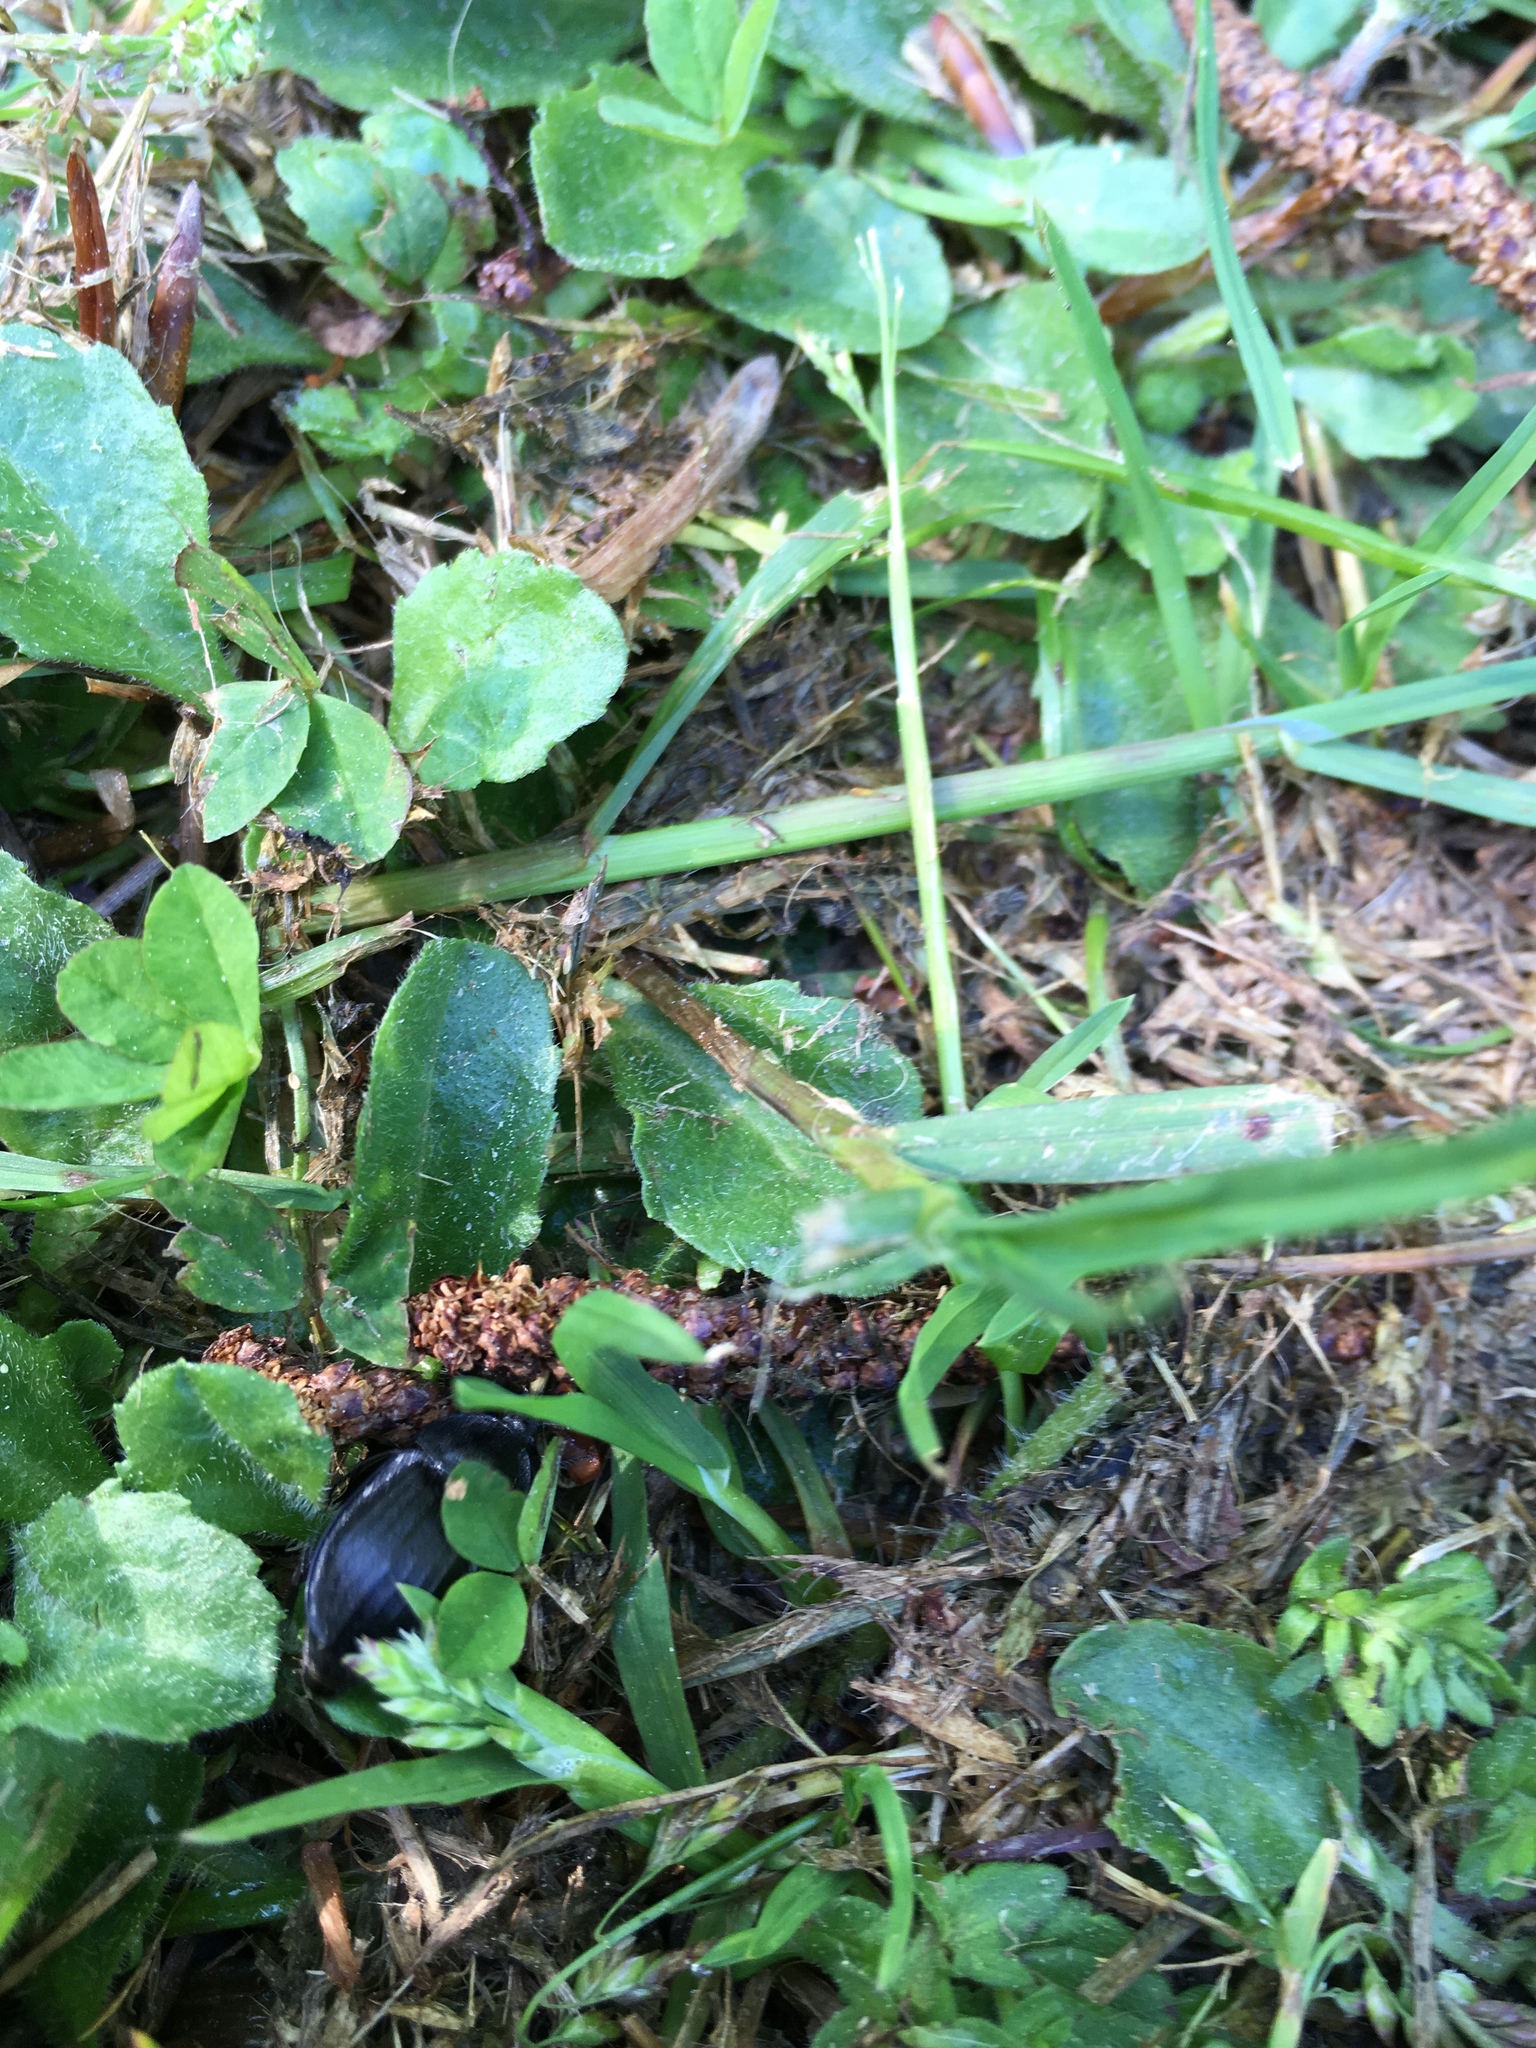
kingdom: Animalia
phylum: Arthropoda
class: Insecta
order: Coleoptera
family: Staphylinidae
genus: Silpha
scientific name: Silpha atrata
